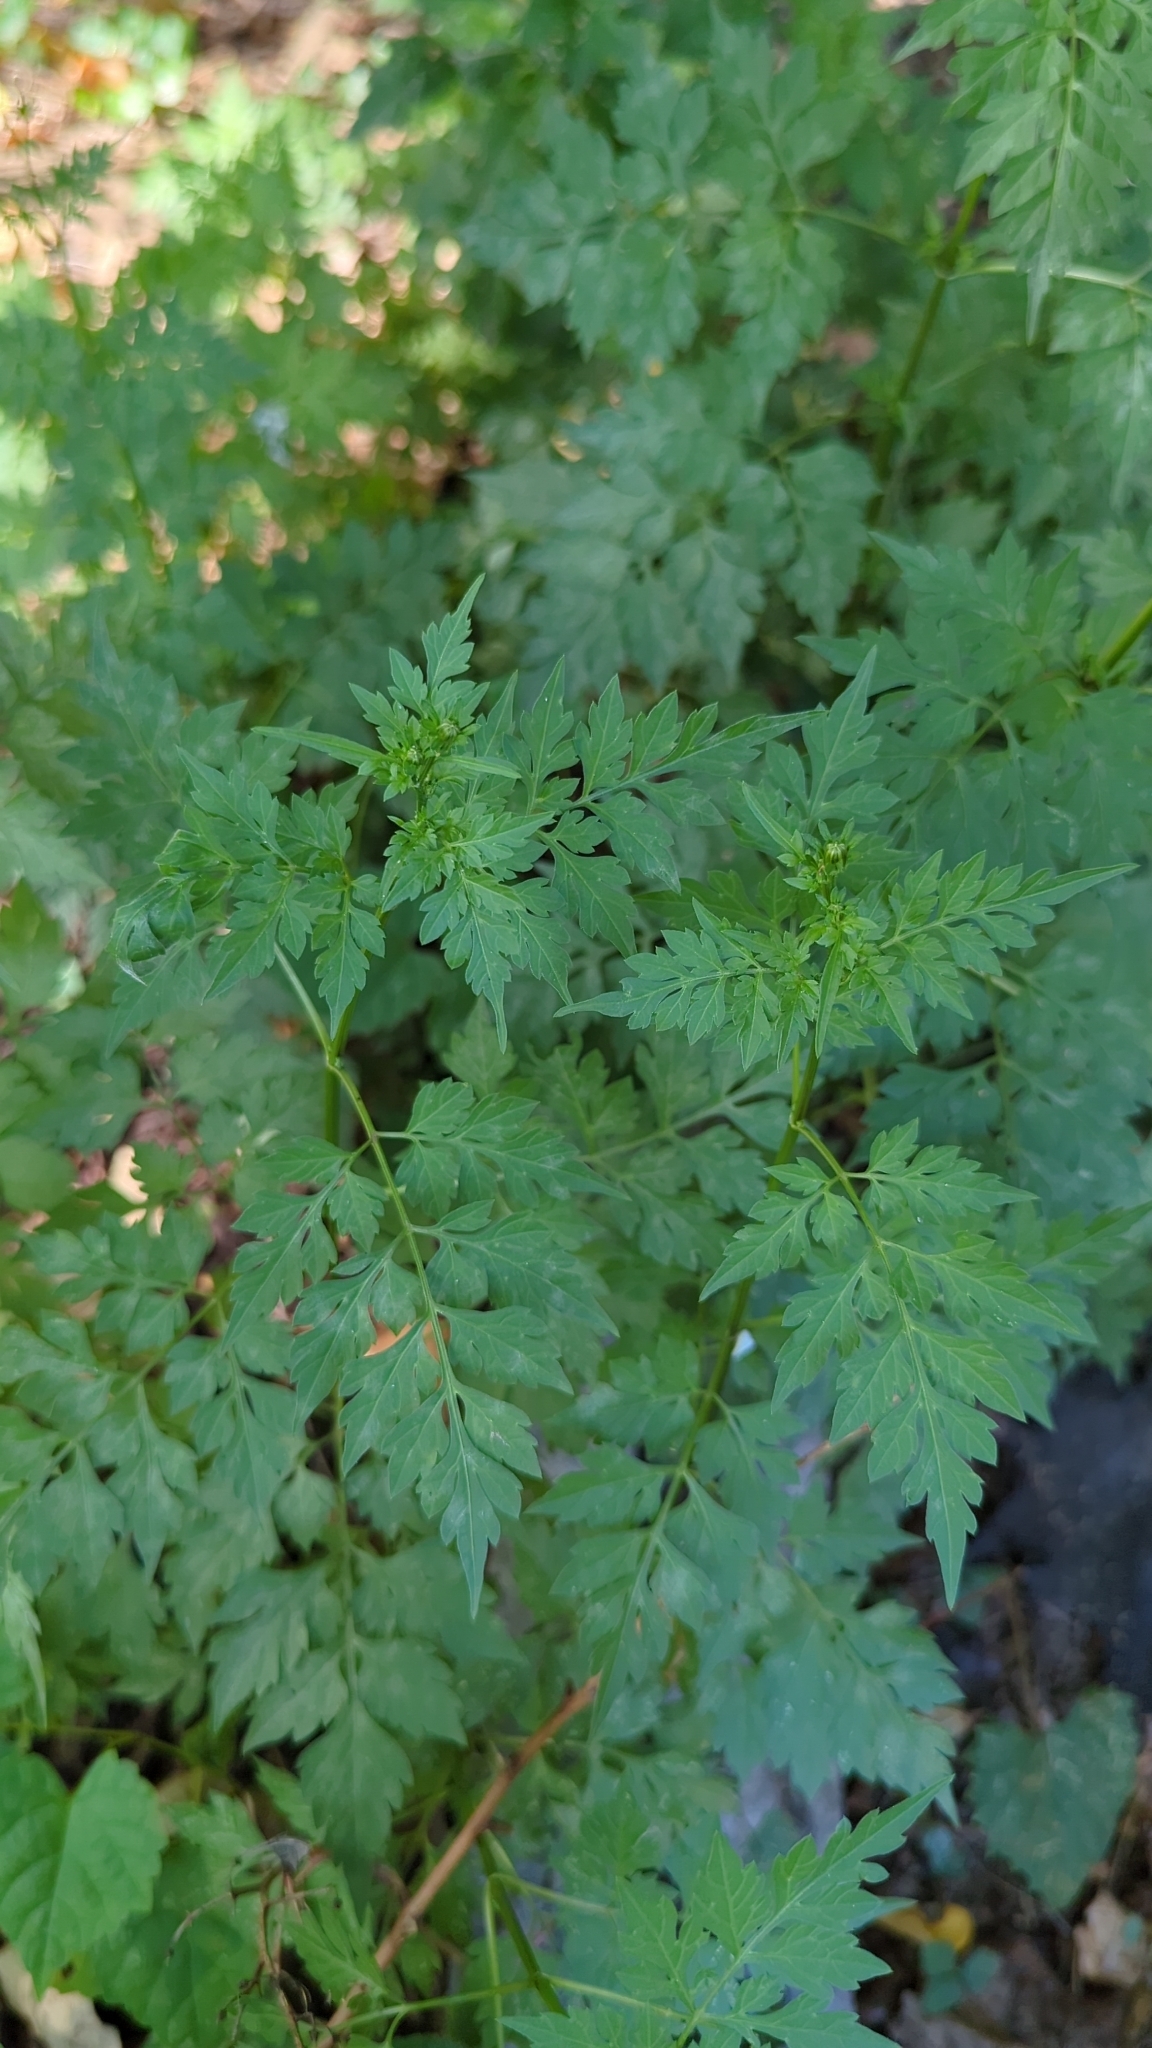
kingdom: Plantae
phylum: Tracheophyta
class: Magnoliopsida
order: Asterales
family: Asteraceae
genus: Bidens
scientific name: Bidens bipinnata
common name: Spanish-needles
